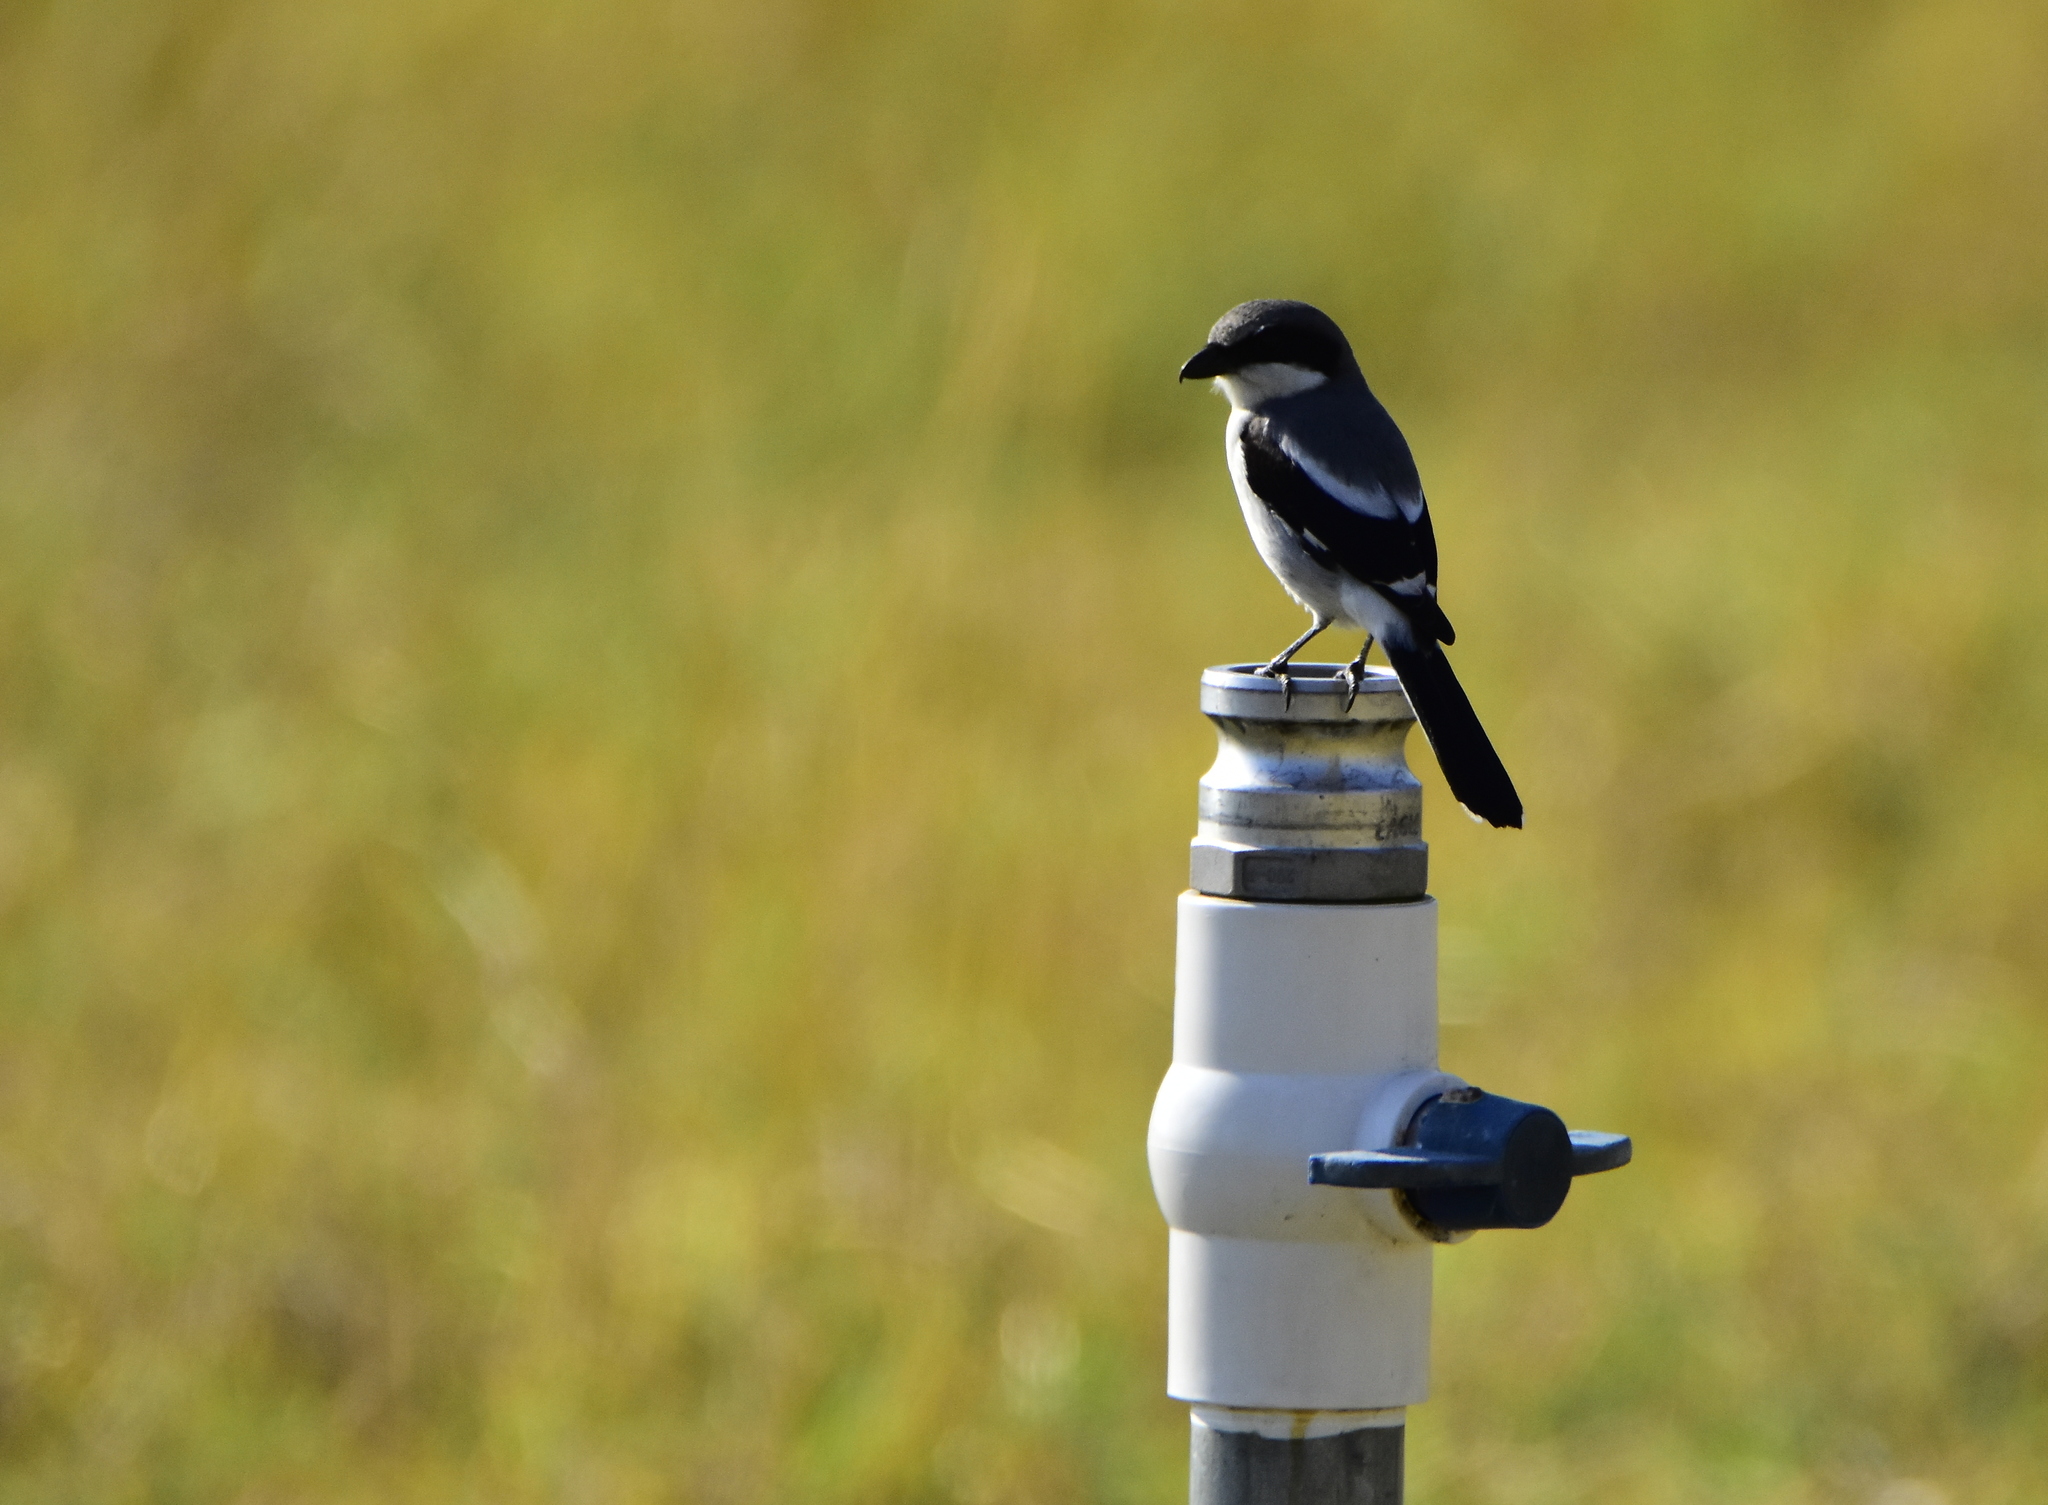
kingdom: Animalia
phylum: Chordata
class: Aves
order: Passeriformes
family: Laniidae
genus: Lanius
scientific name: Lanius ludovicianus
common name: Loggerhead shrike
